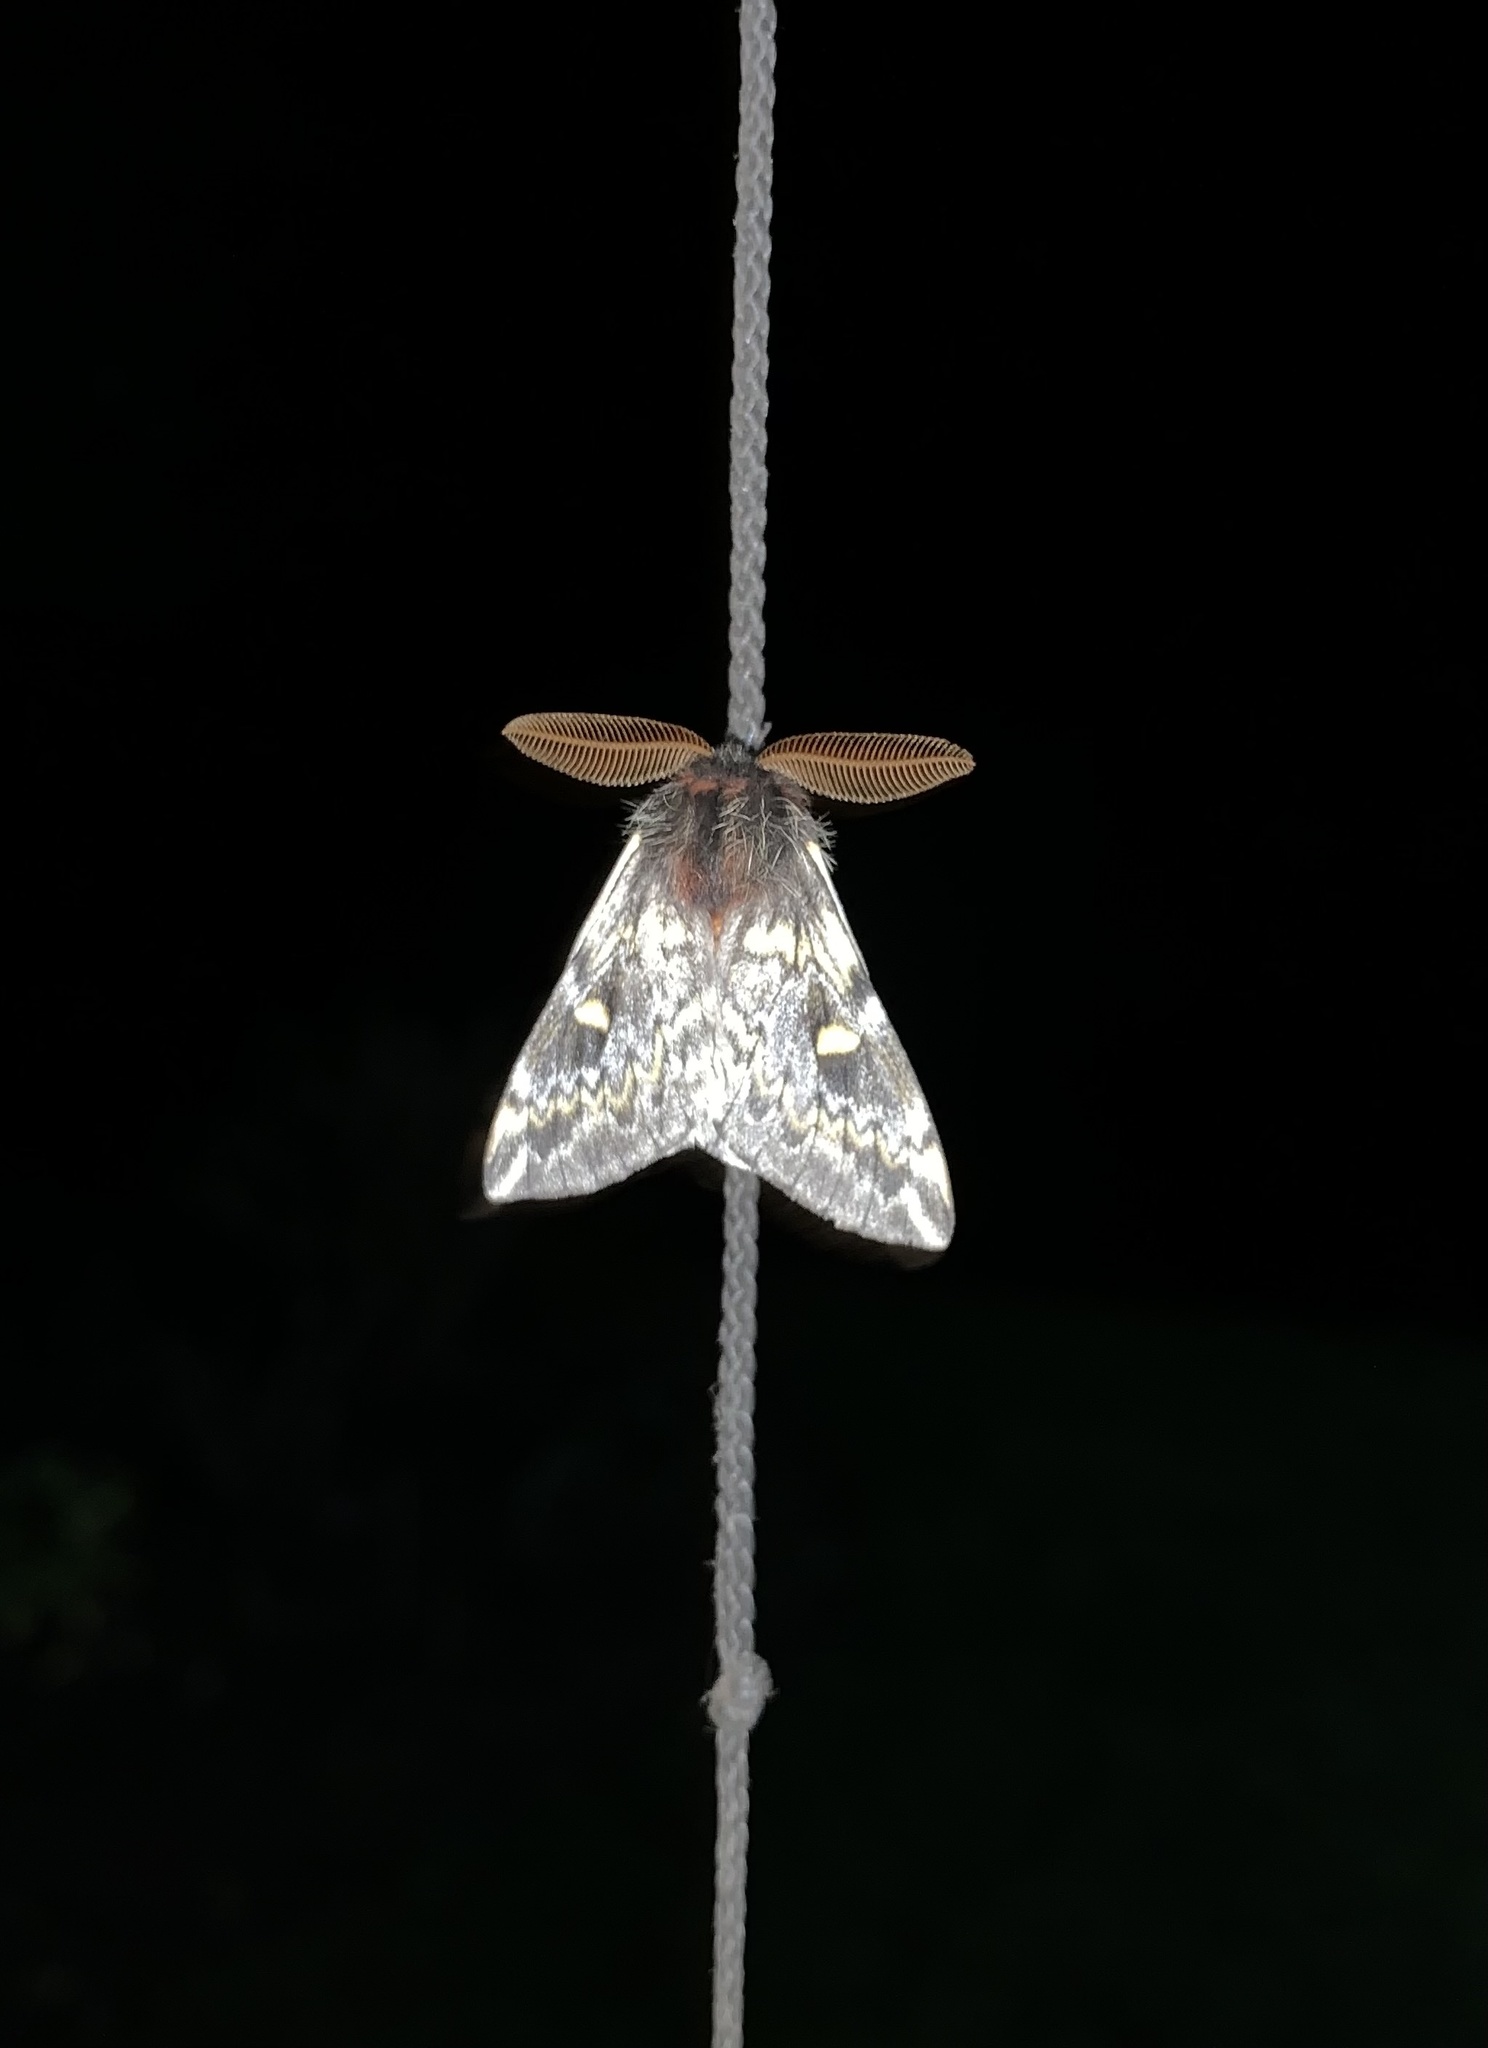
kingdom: Animalia
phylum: Arthropoda
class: Insecta
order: Lepidoptera
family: Saturniidae
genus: Ormiscodes
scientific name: Ormiscodes schmidtnielseni
